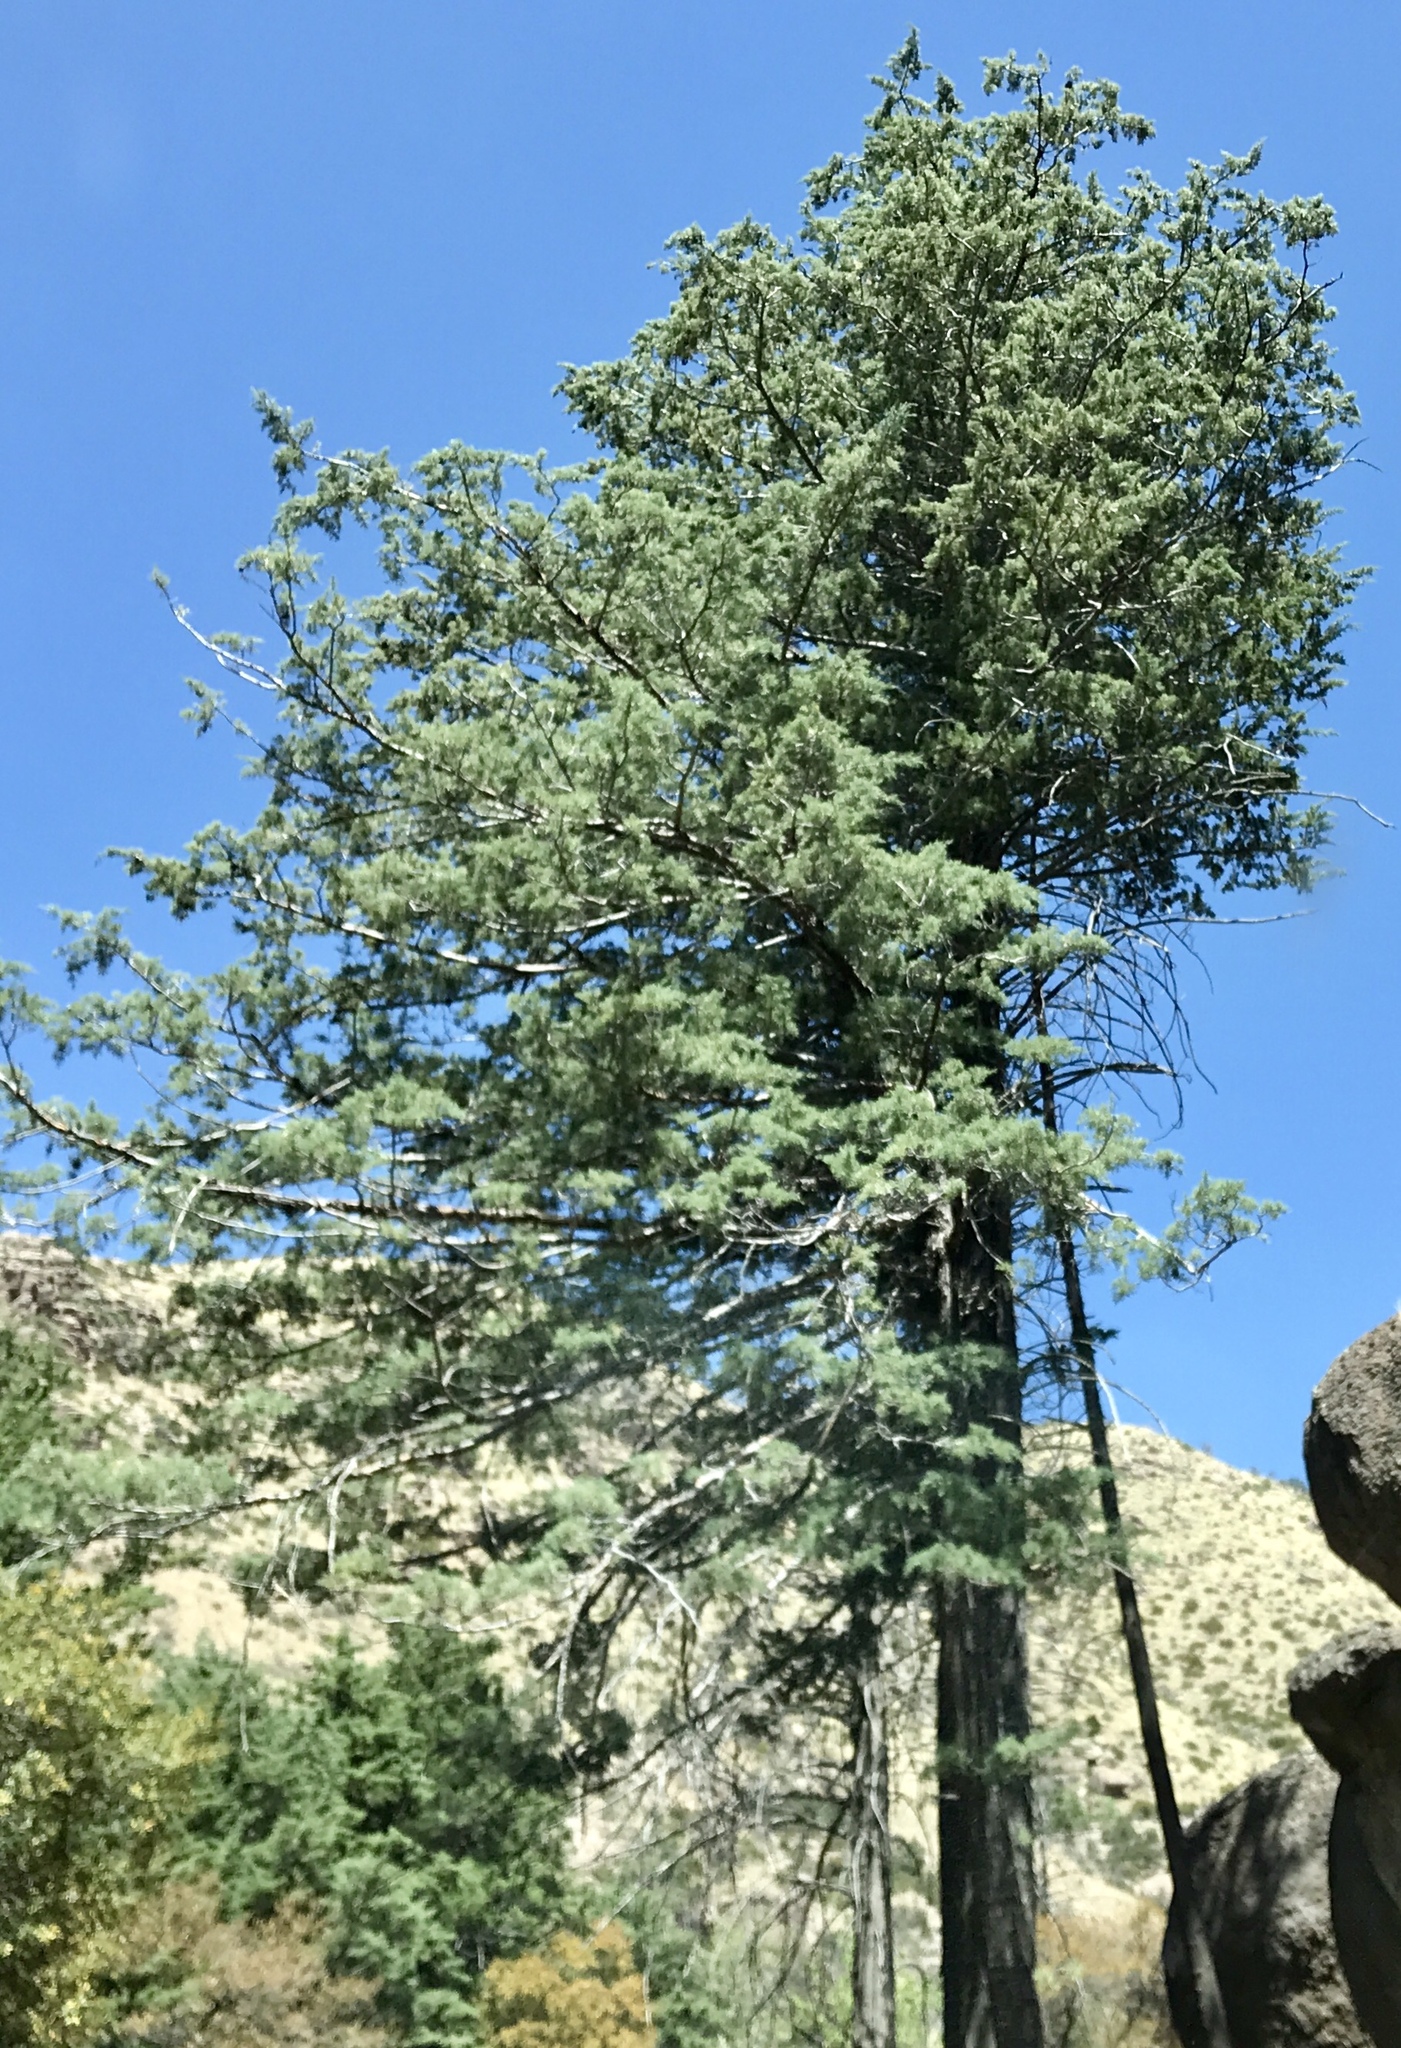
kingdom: Plantae
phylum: Tracheophyta
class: Pinopsida
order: Pinales
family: Cupressaceae
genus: Cupressus
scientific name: Cupressus arizonica
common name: Arizona cypress
